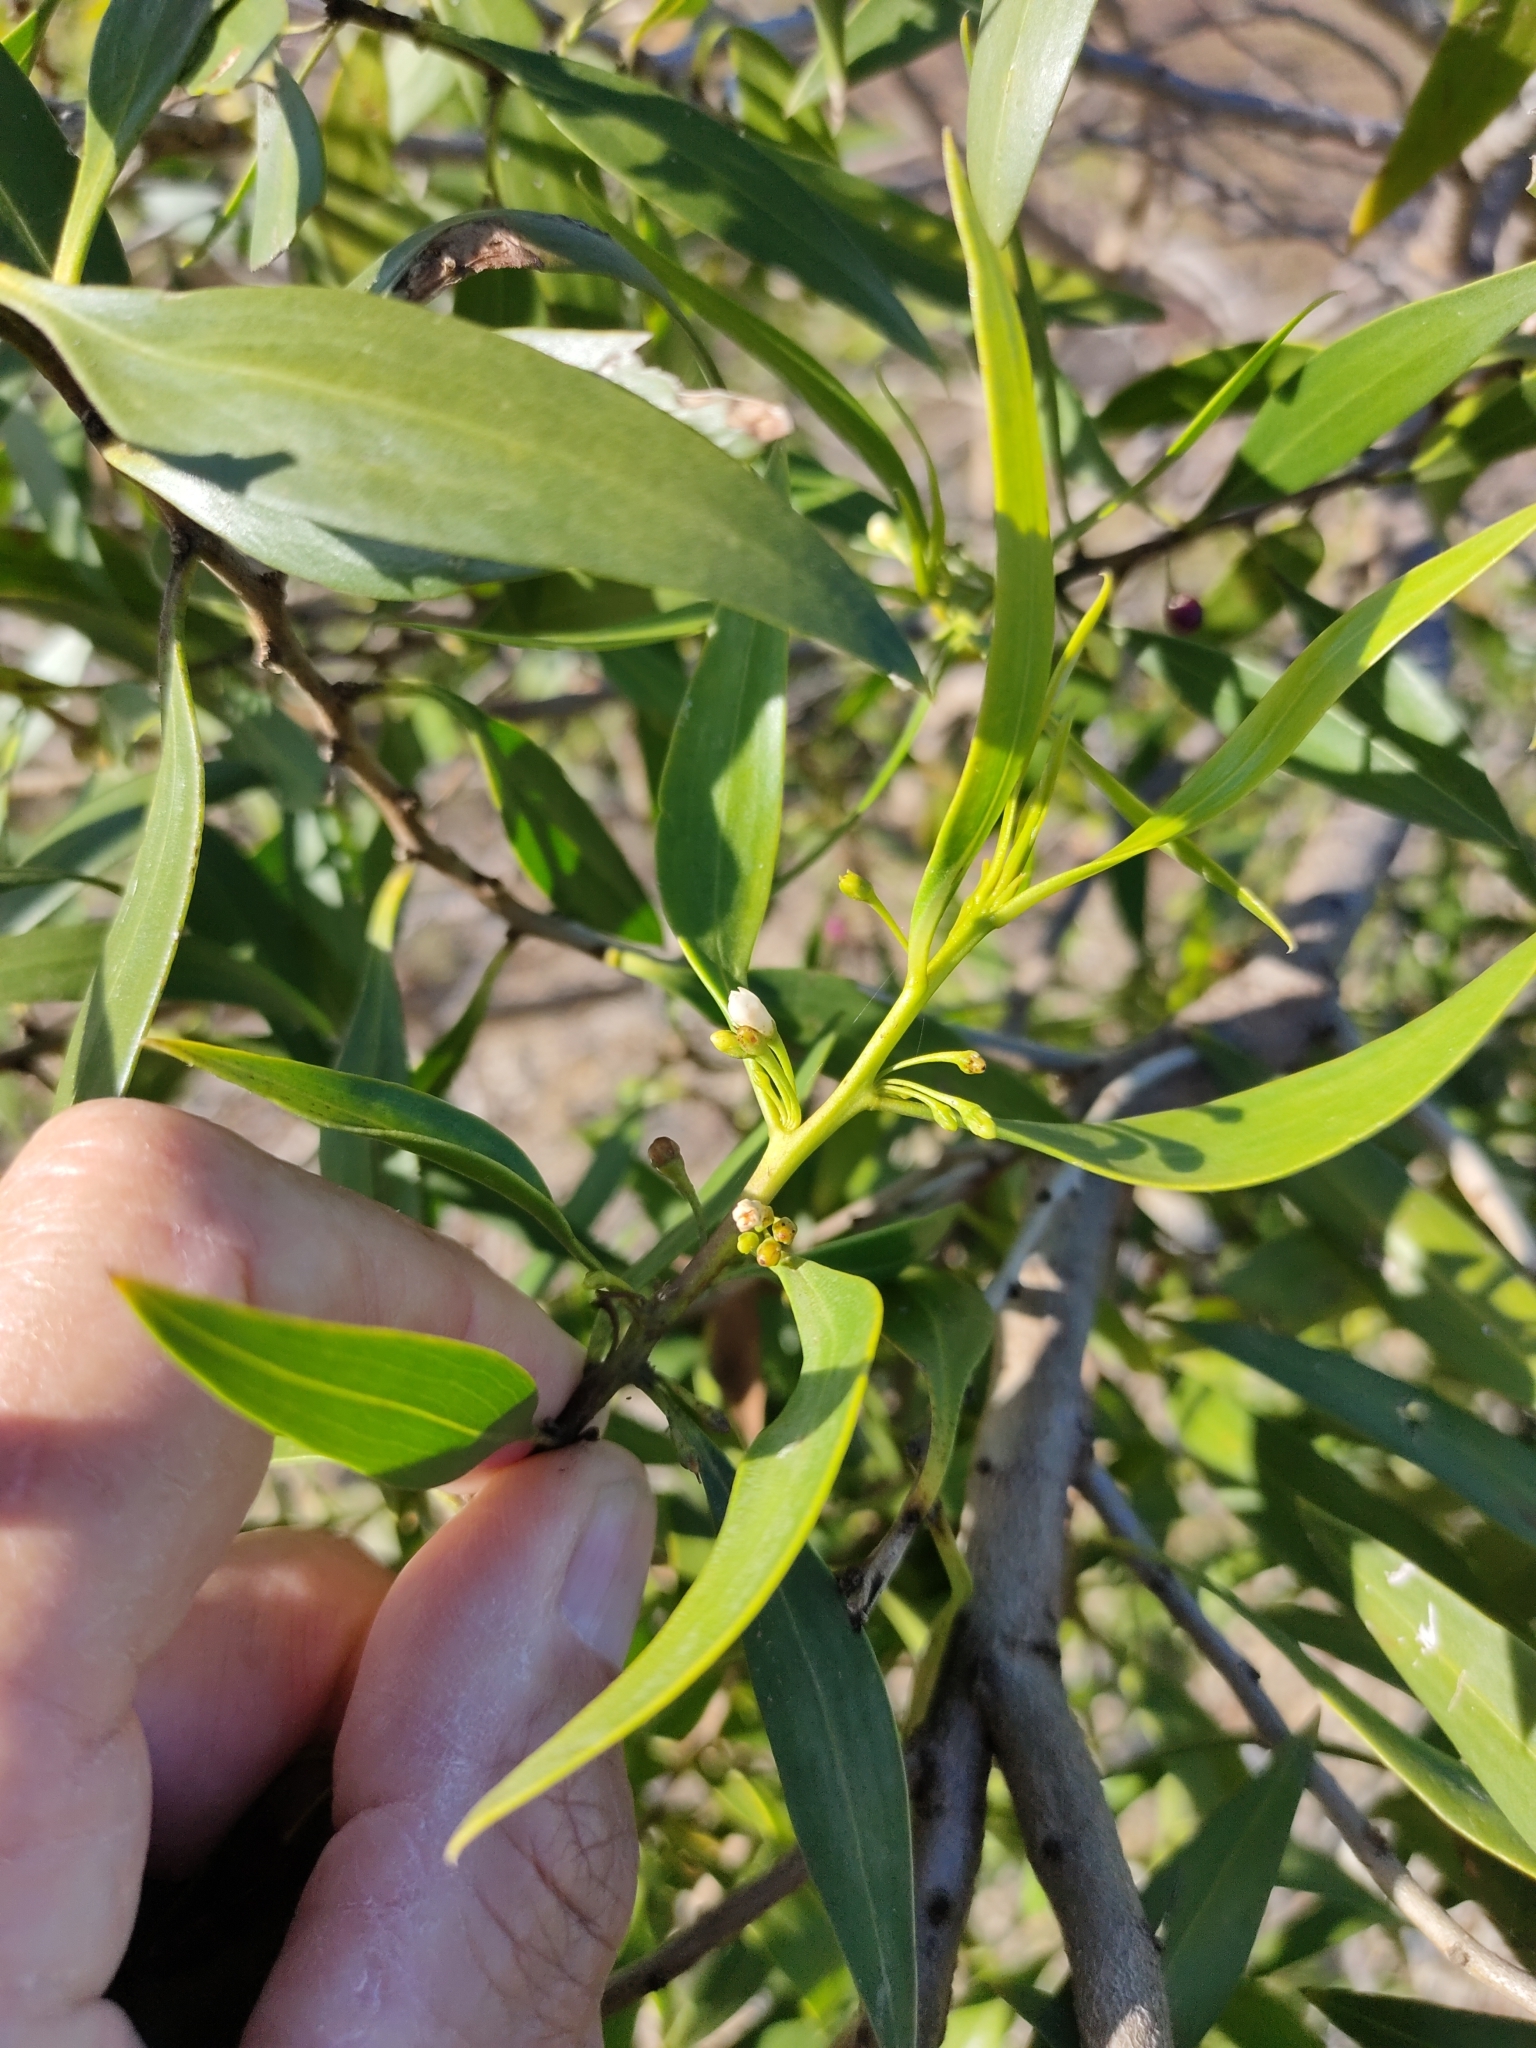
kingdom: Plantae
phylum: Tracheophyta
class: Magnoliopsida
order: Lamiales
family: Scrophulariaceae
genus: Myoporum
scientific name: Myoporum acuminatum
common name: Pointed boobialla
